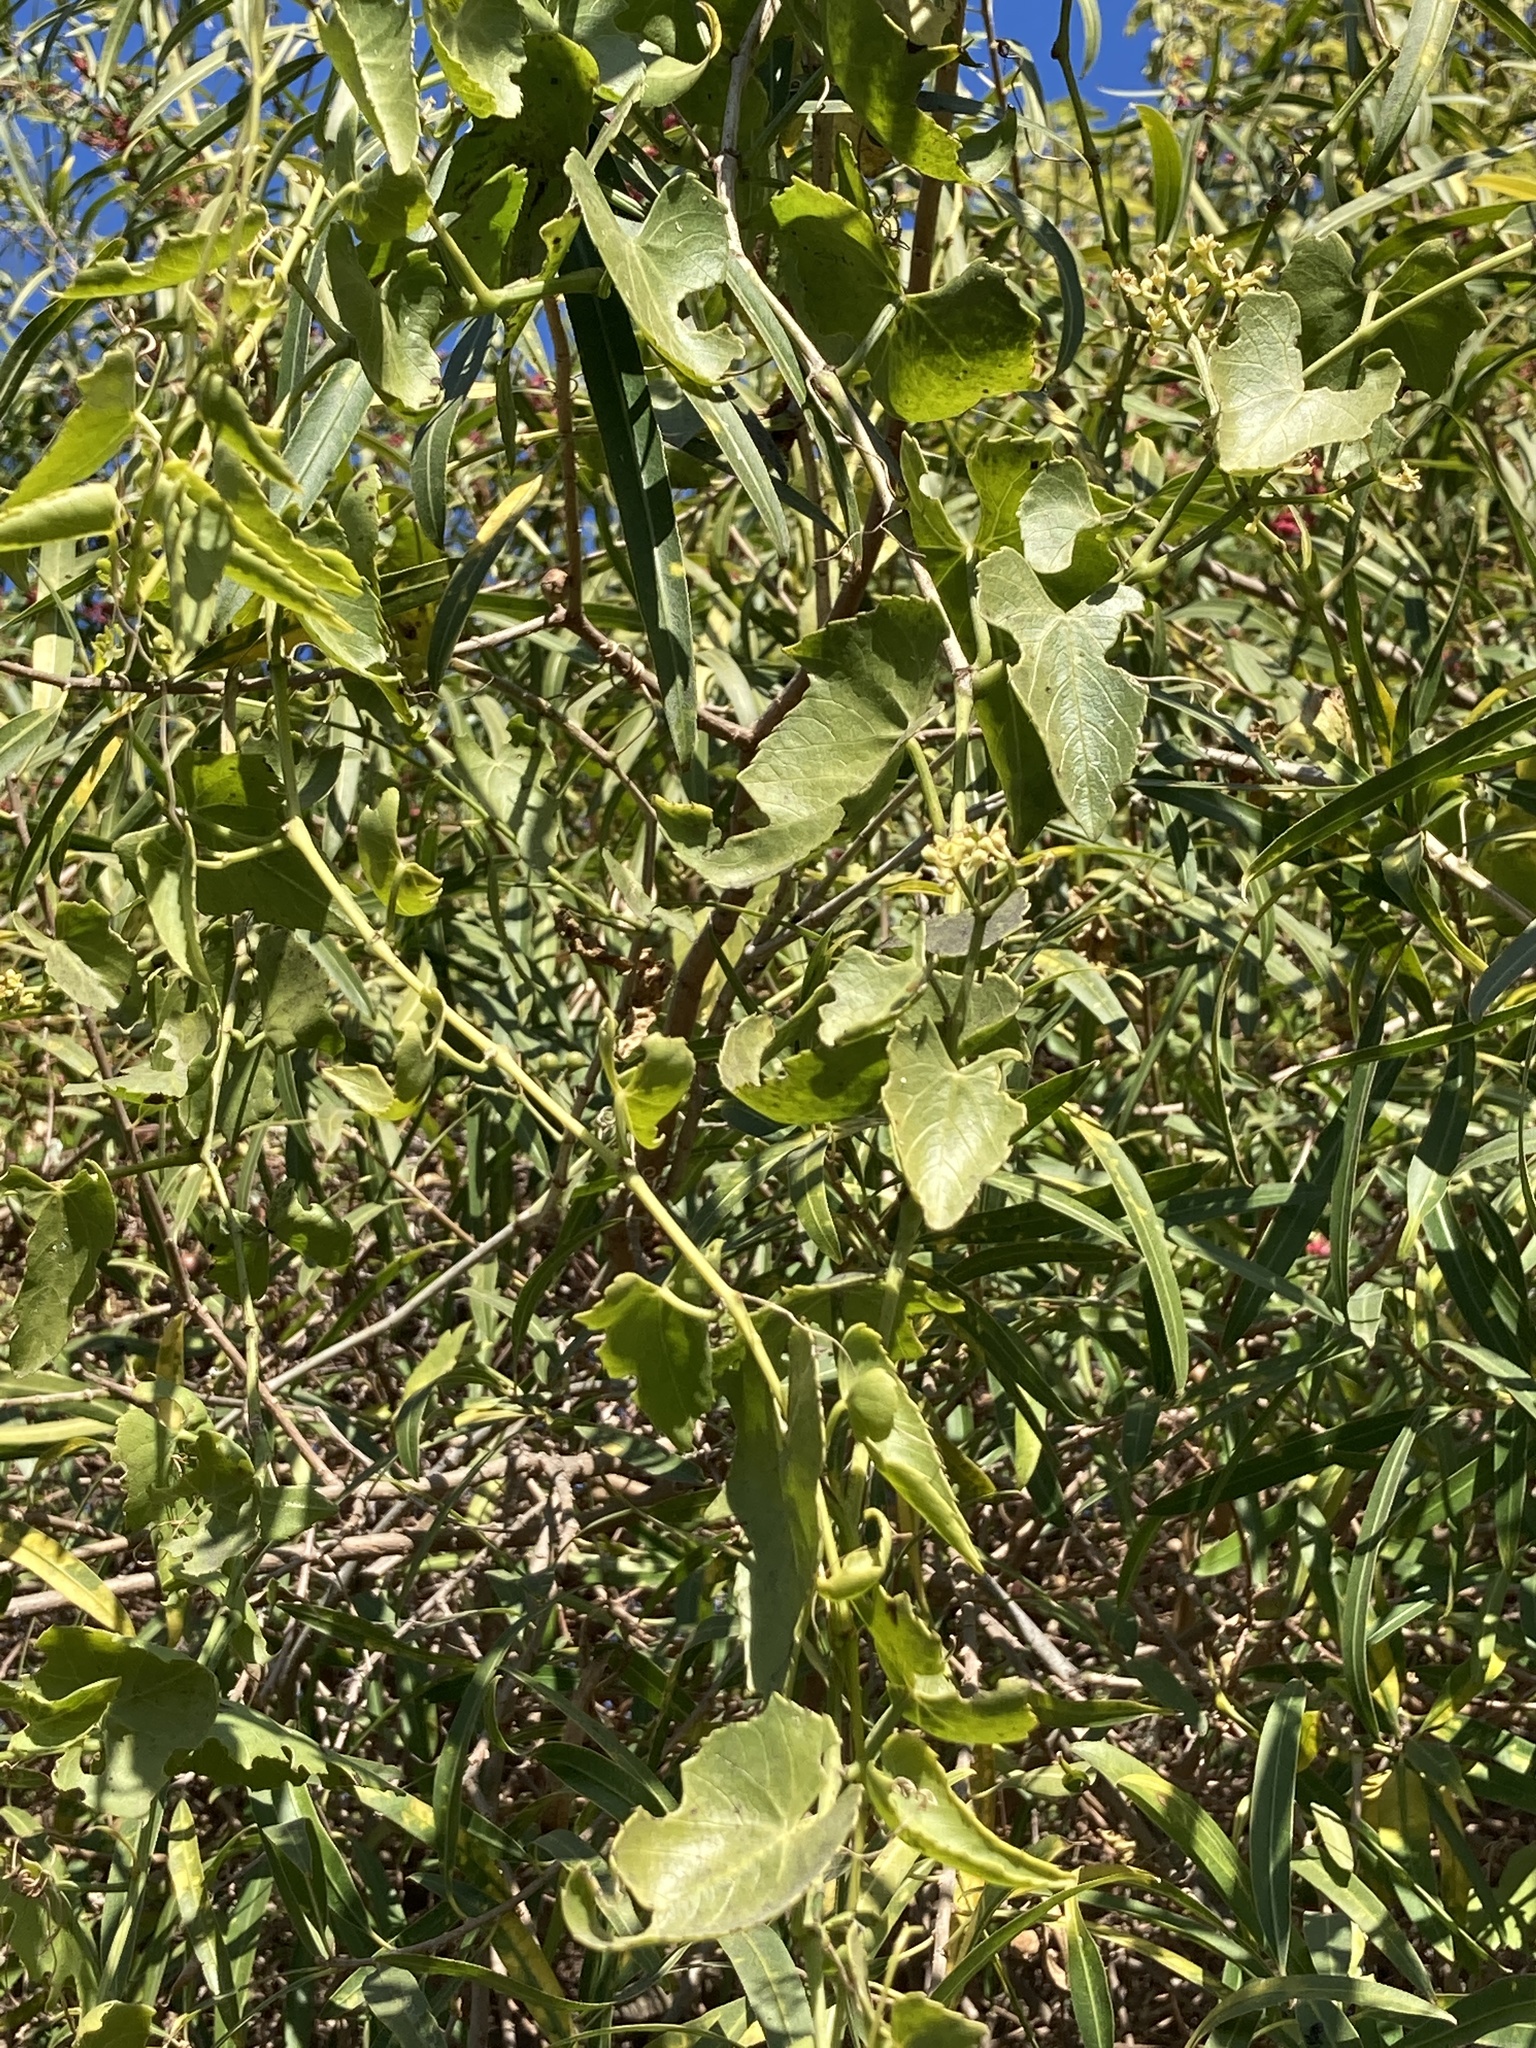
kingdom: Plantae
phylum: Tracheophyta
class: Magnoliopsida
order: Vitales
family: Vitaceae
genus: Cissus
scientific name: Cissus verticillata
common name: Princess vine
